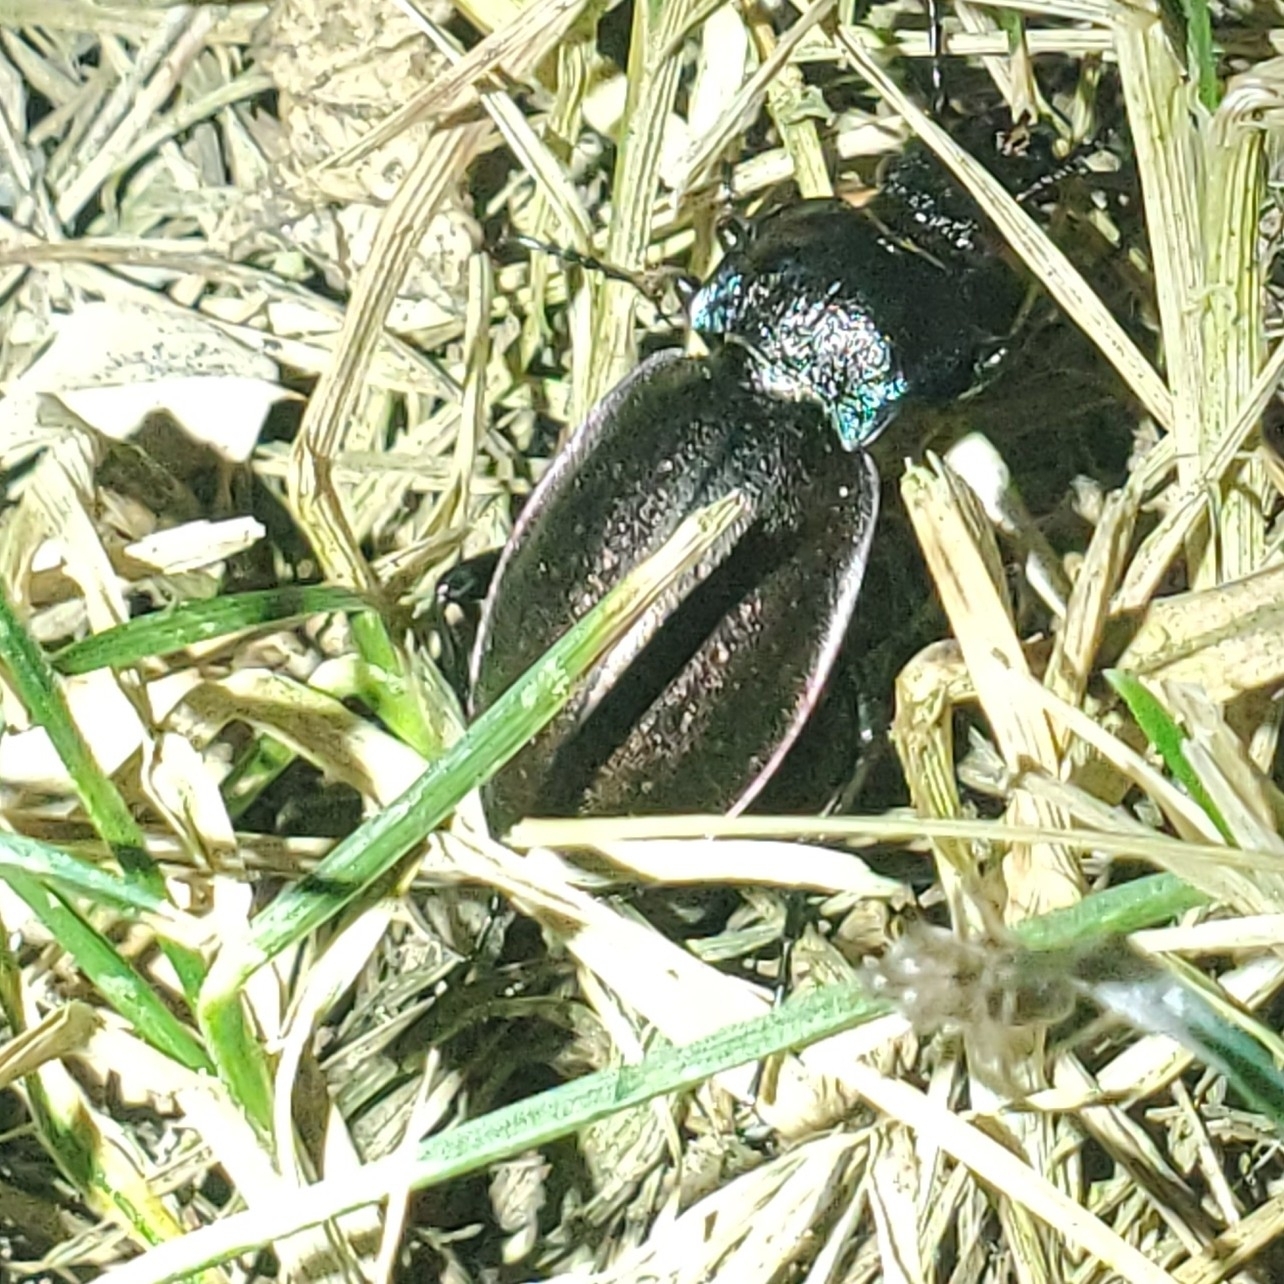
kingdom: Animalia
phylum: Arthropoda
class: Insecta
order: Coleoptera
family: Carabidae
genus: Carabus
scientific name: Carabus nemoralis
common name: European ground beetle
